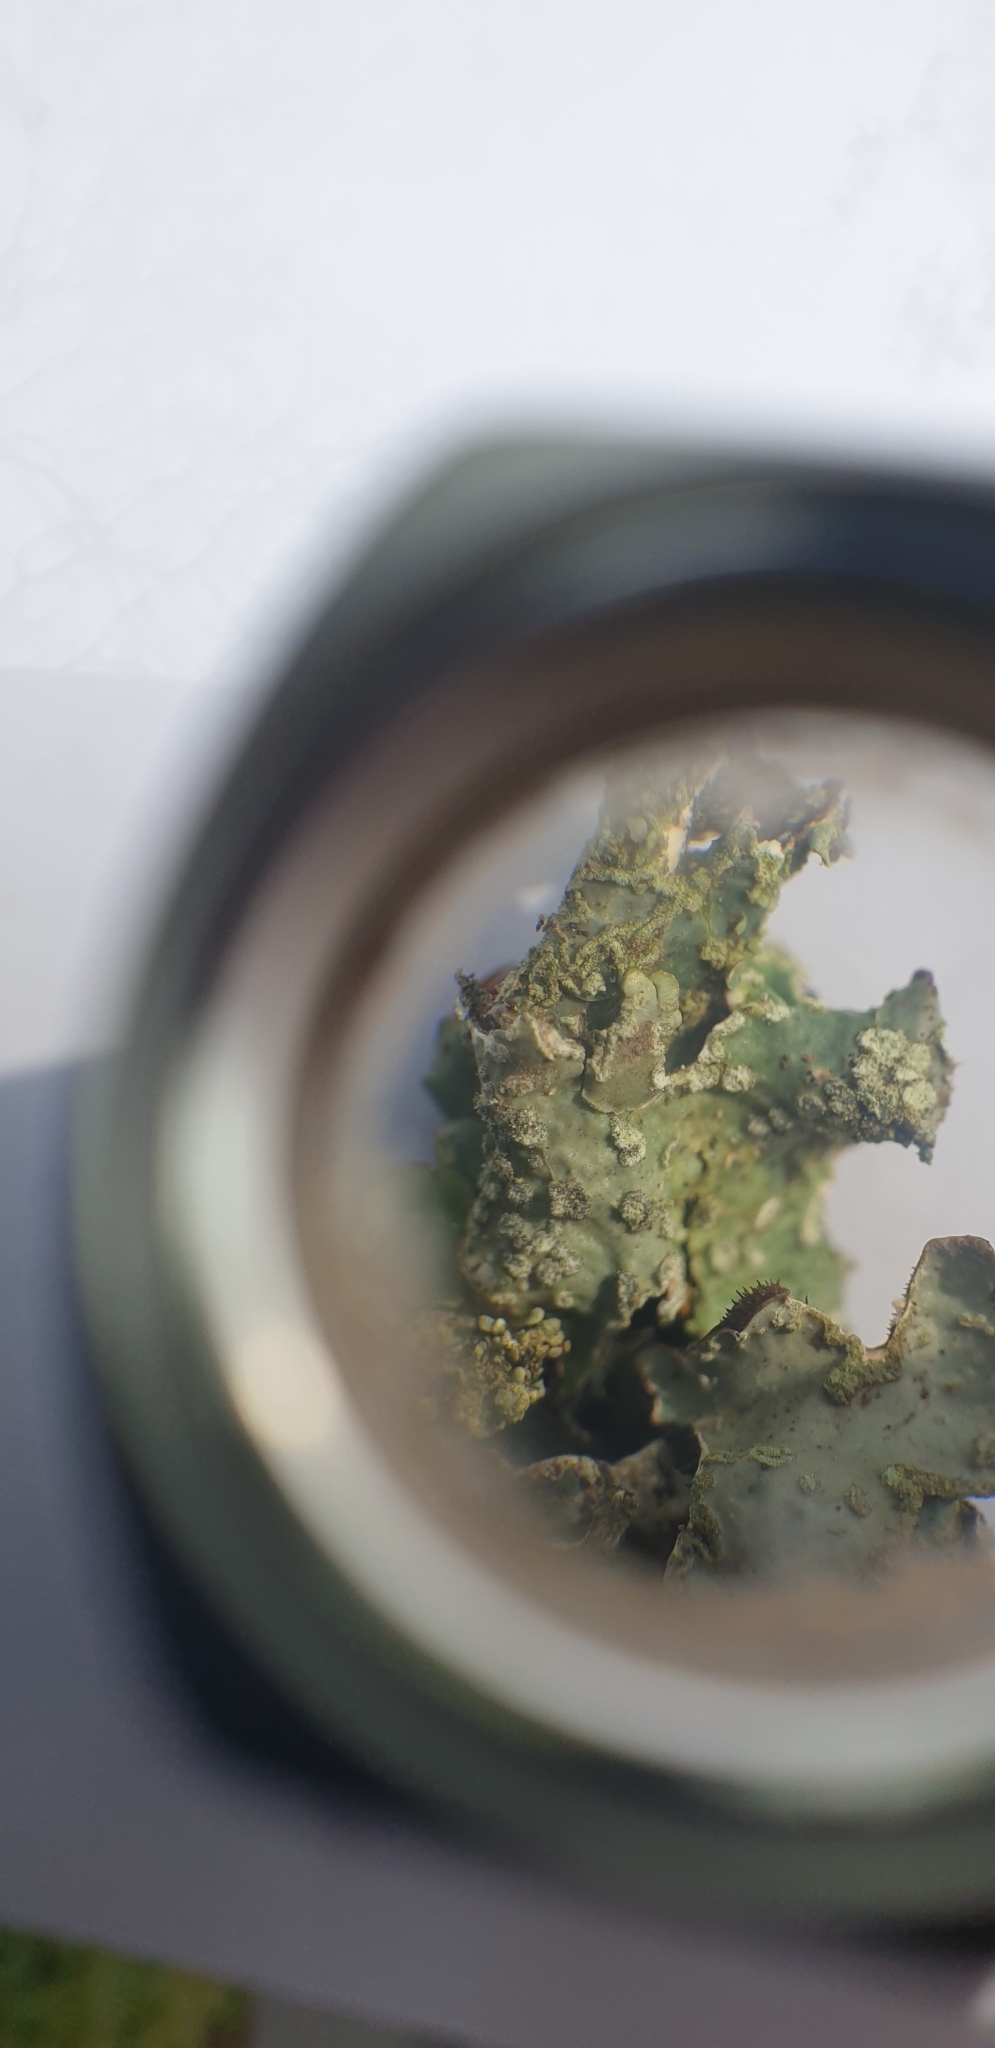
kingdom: Fungi
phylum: Ascomycota
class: Lecanoromycetes
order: Lecanorales
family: Parmeliaceae
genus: Parmelia
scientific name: Parmelia sulcata
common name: Netted shield lichen
